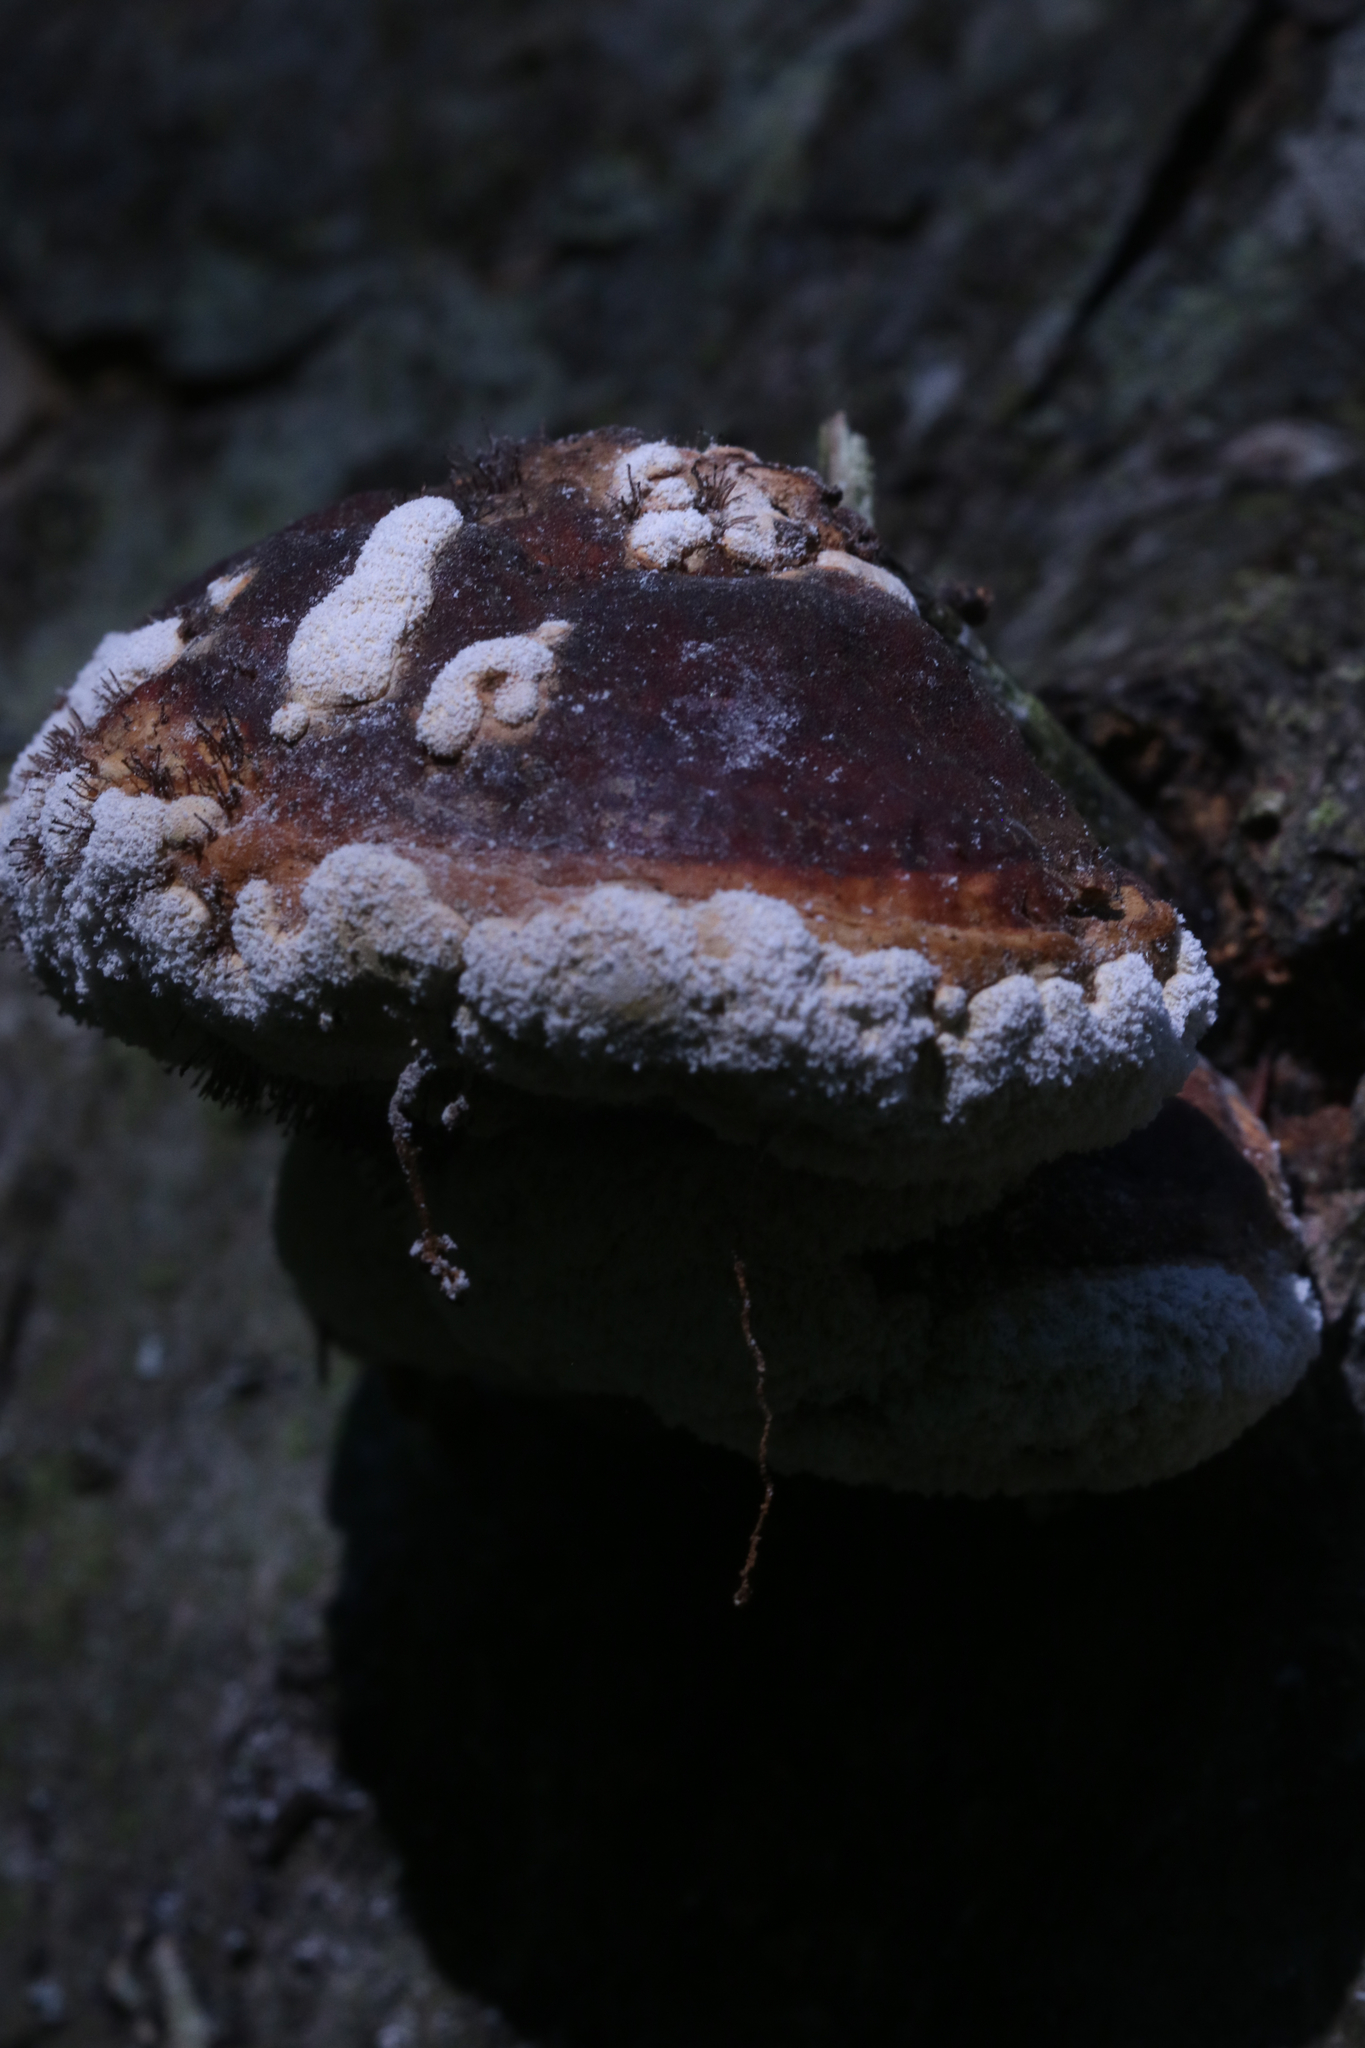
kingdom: Fungi
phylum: Ascomycota
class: Sordariomycetes
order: Hypocreales
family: Hypocreaceae
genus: Trichoderma
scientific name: Trichoderma pulvinatum
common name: Ochre cushion
